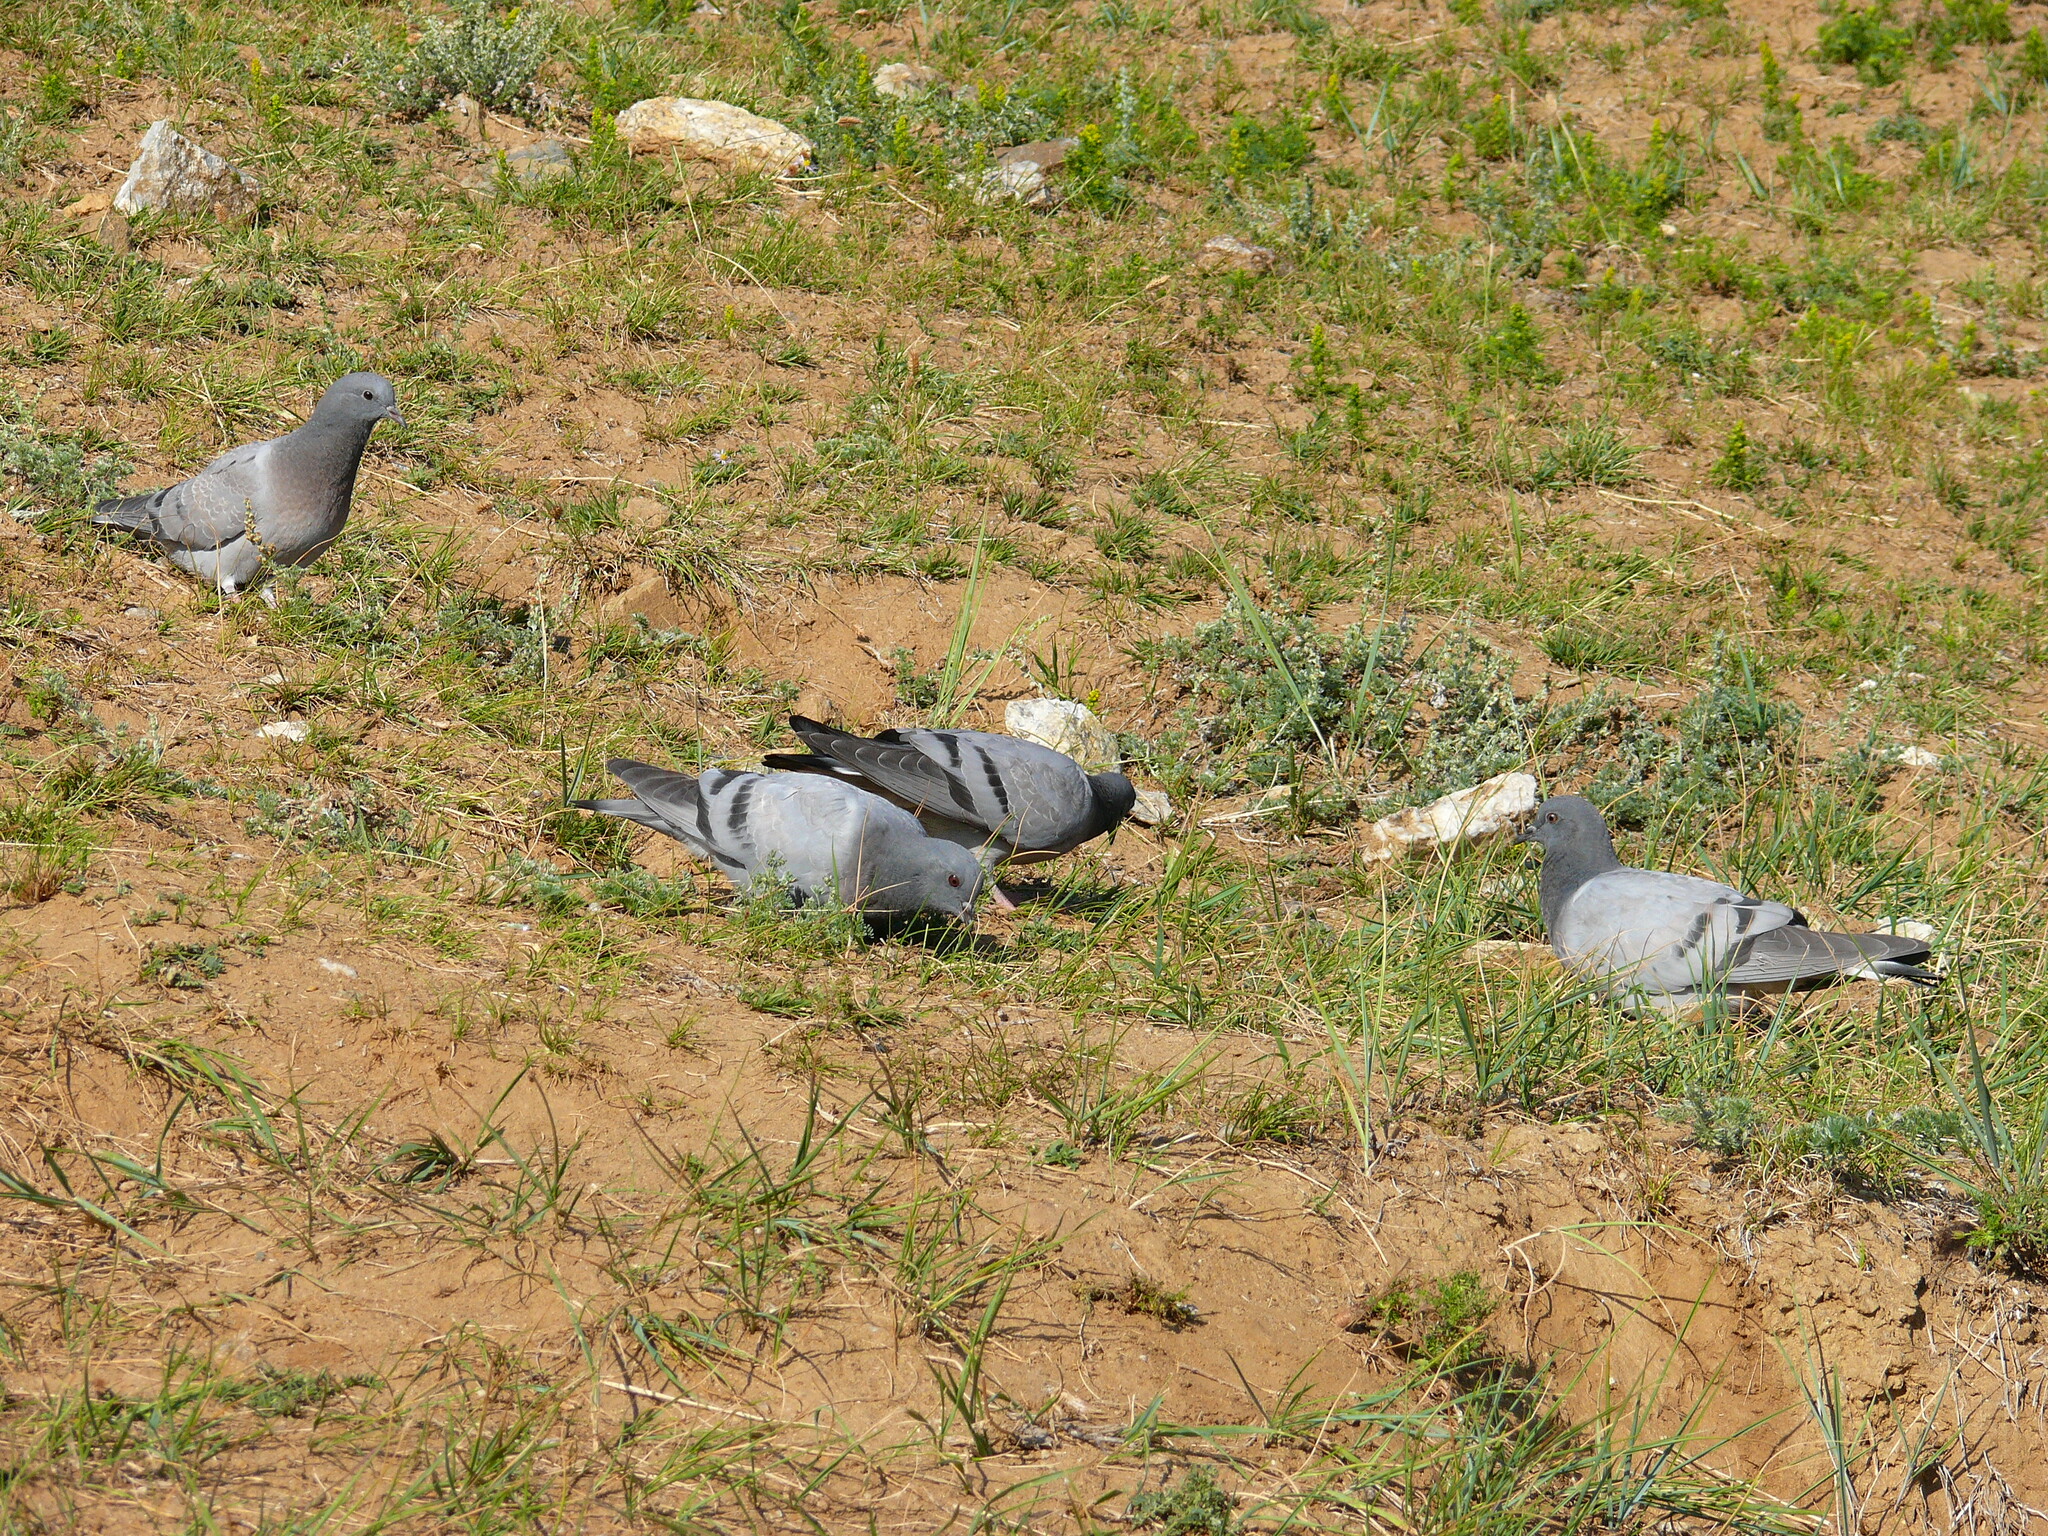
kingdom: Animalia
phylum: Chordata
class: Aves
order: Columbiformes
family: Columbidae
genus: Columba
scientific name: Columba rupestris
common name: Hill pigeon
